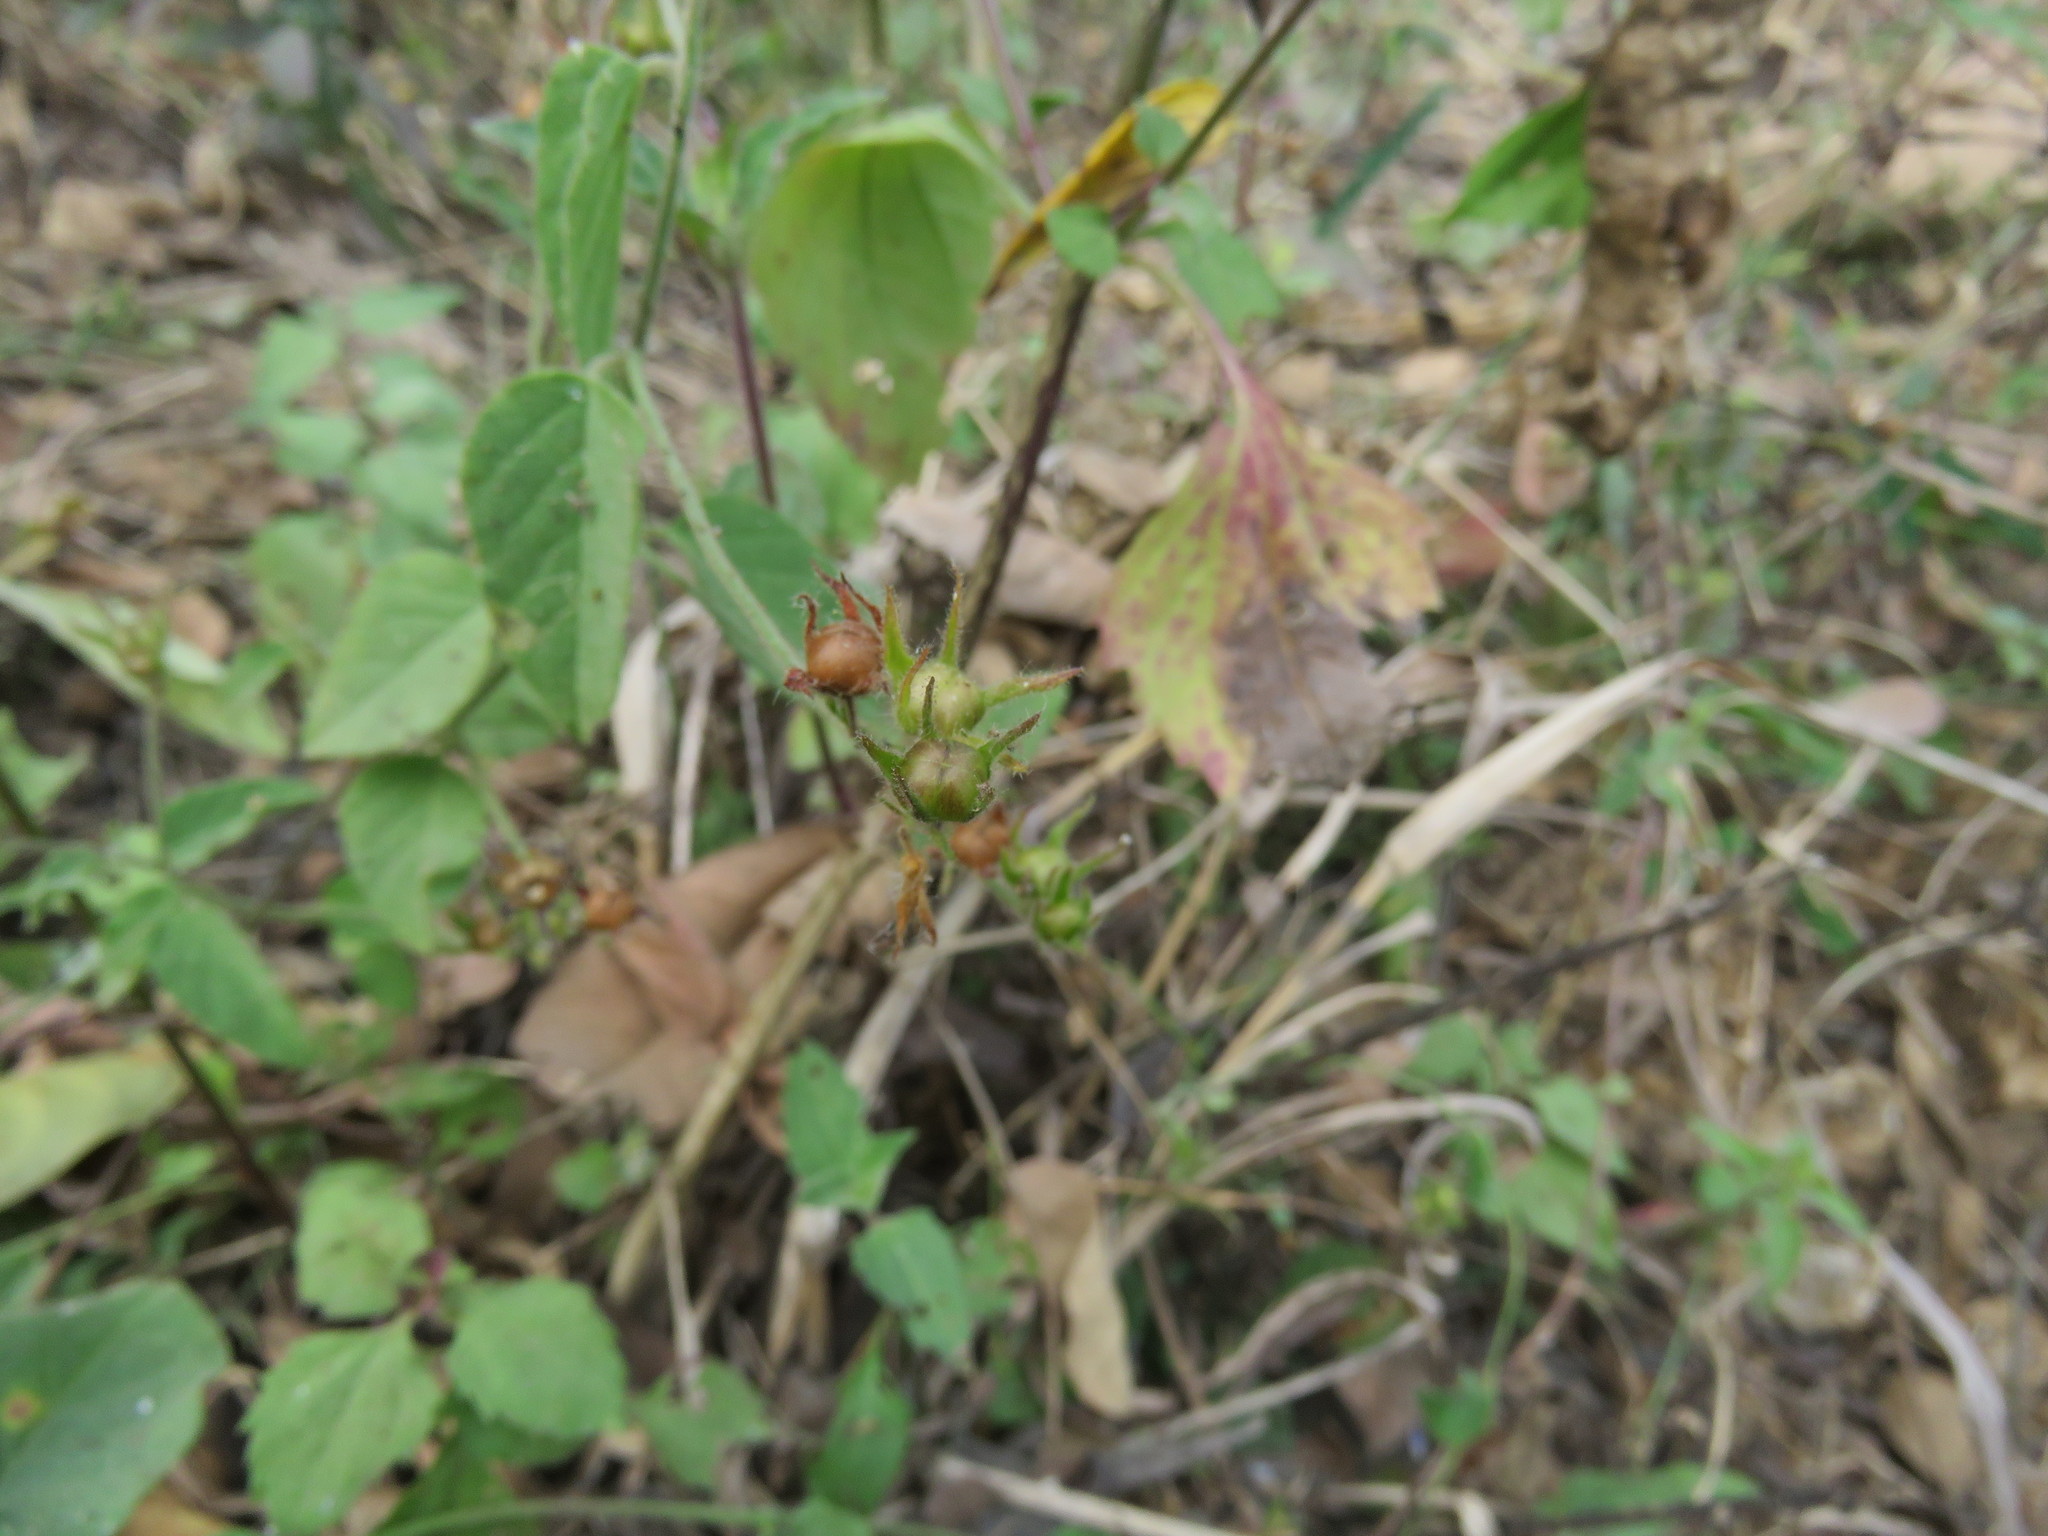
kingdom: Plantae
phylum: Tracheophyta
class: Magnoliopsida
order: Solanales
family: Convolvulaceae
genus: Jacquemontia
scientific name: Jacquemontia evolvuloides
